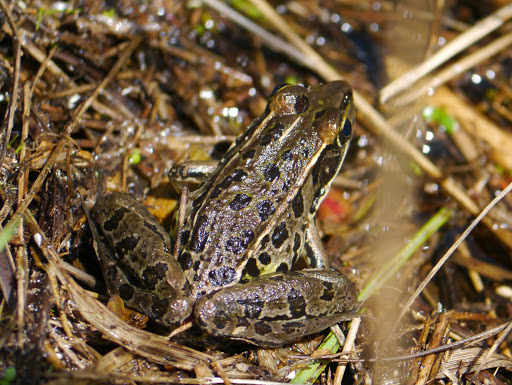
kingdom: Animalia
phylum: Chordata
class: Amphibia
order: Anura
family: Ranidae
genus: Lithobates
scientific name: Lithobates sphenocephalus
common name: Southern leopard frog
